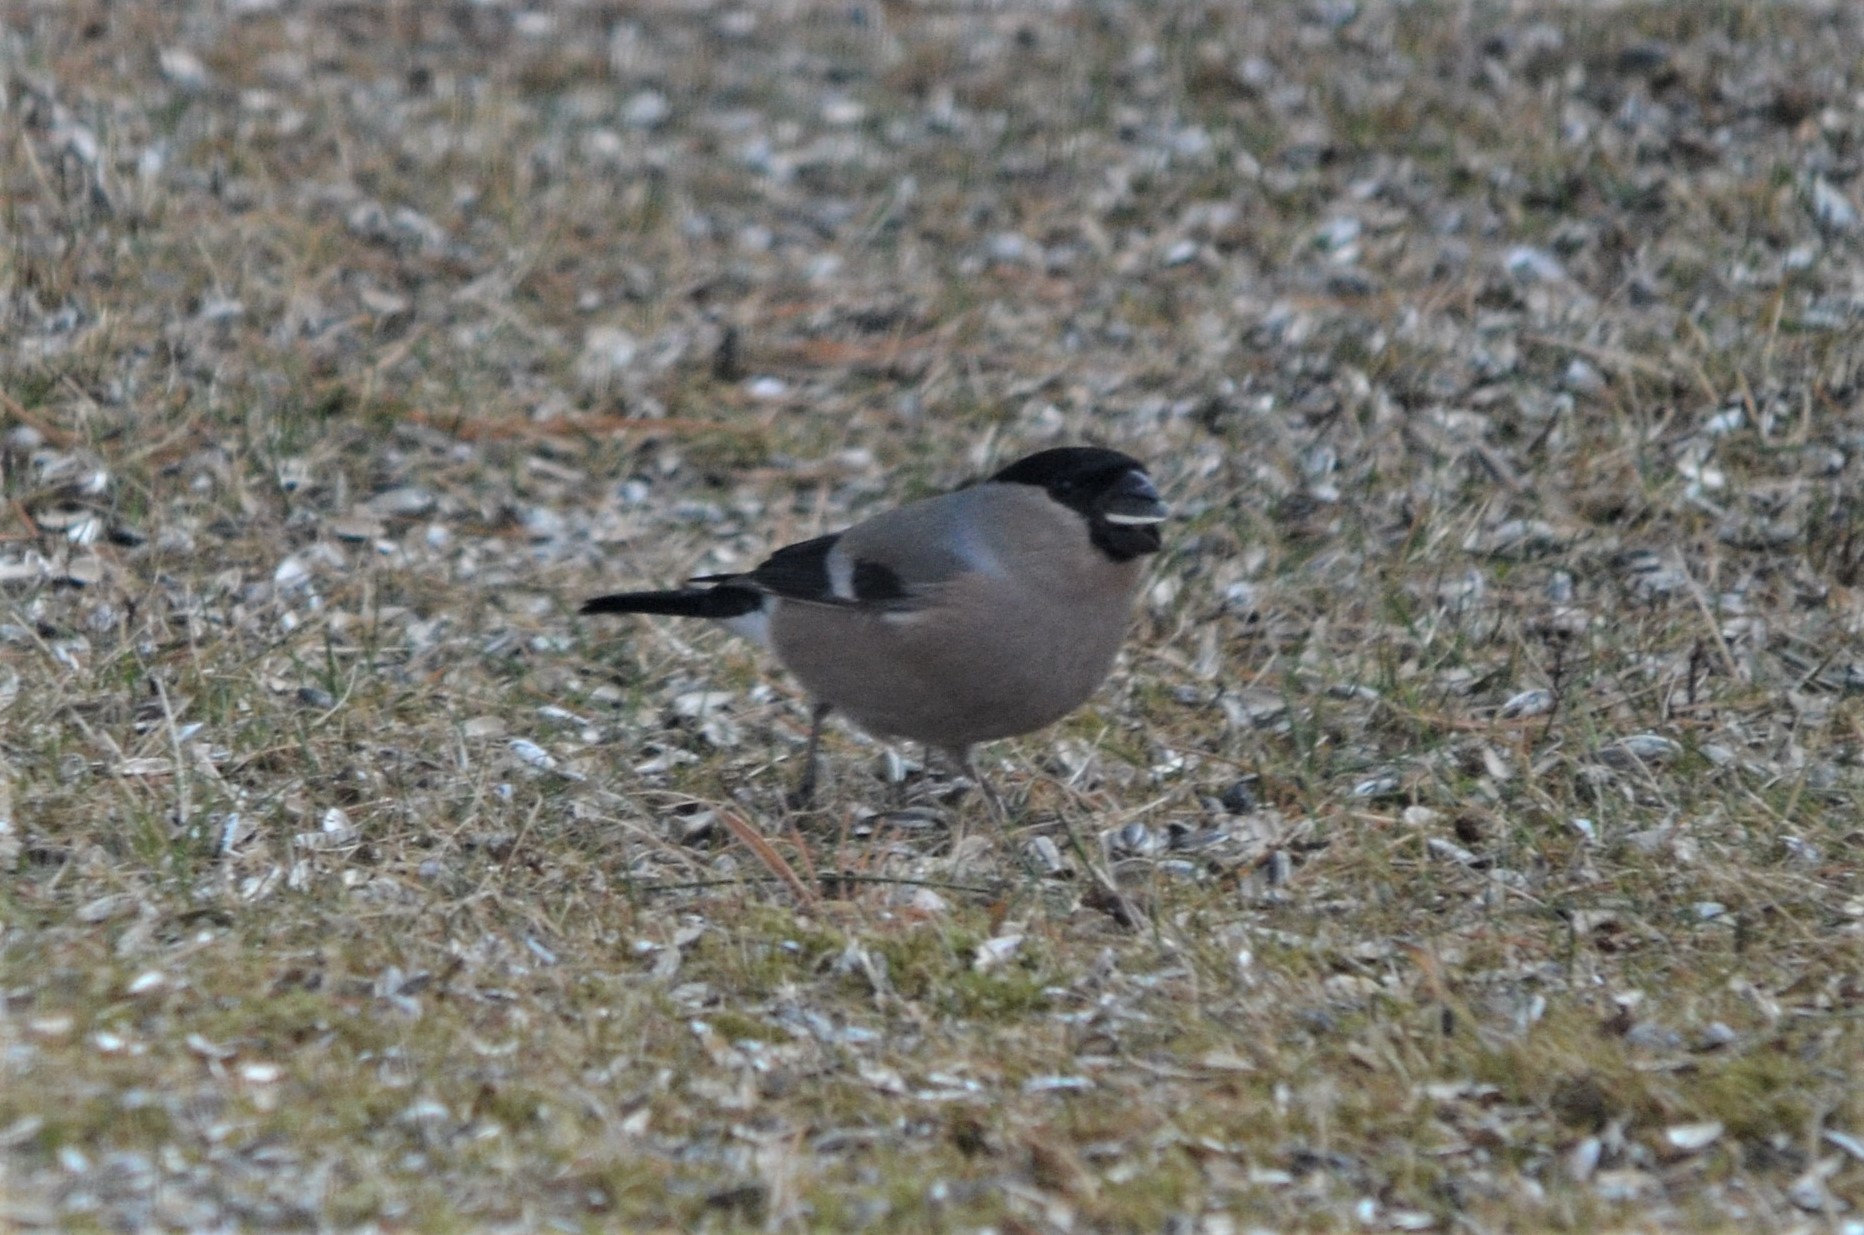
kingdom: Animalia
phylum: Chordata
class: Aves
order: Passeriformes
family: Fringillidae
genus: Pyrrhula
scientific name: Pyrrhula pyrrhula
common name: Eurasian bullfinch
